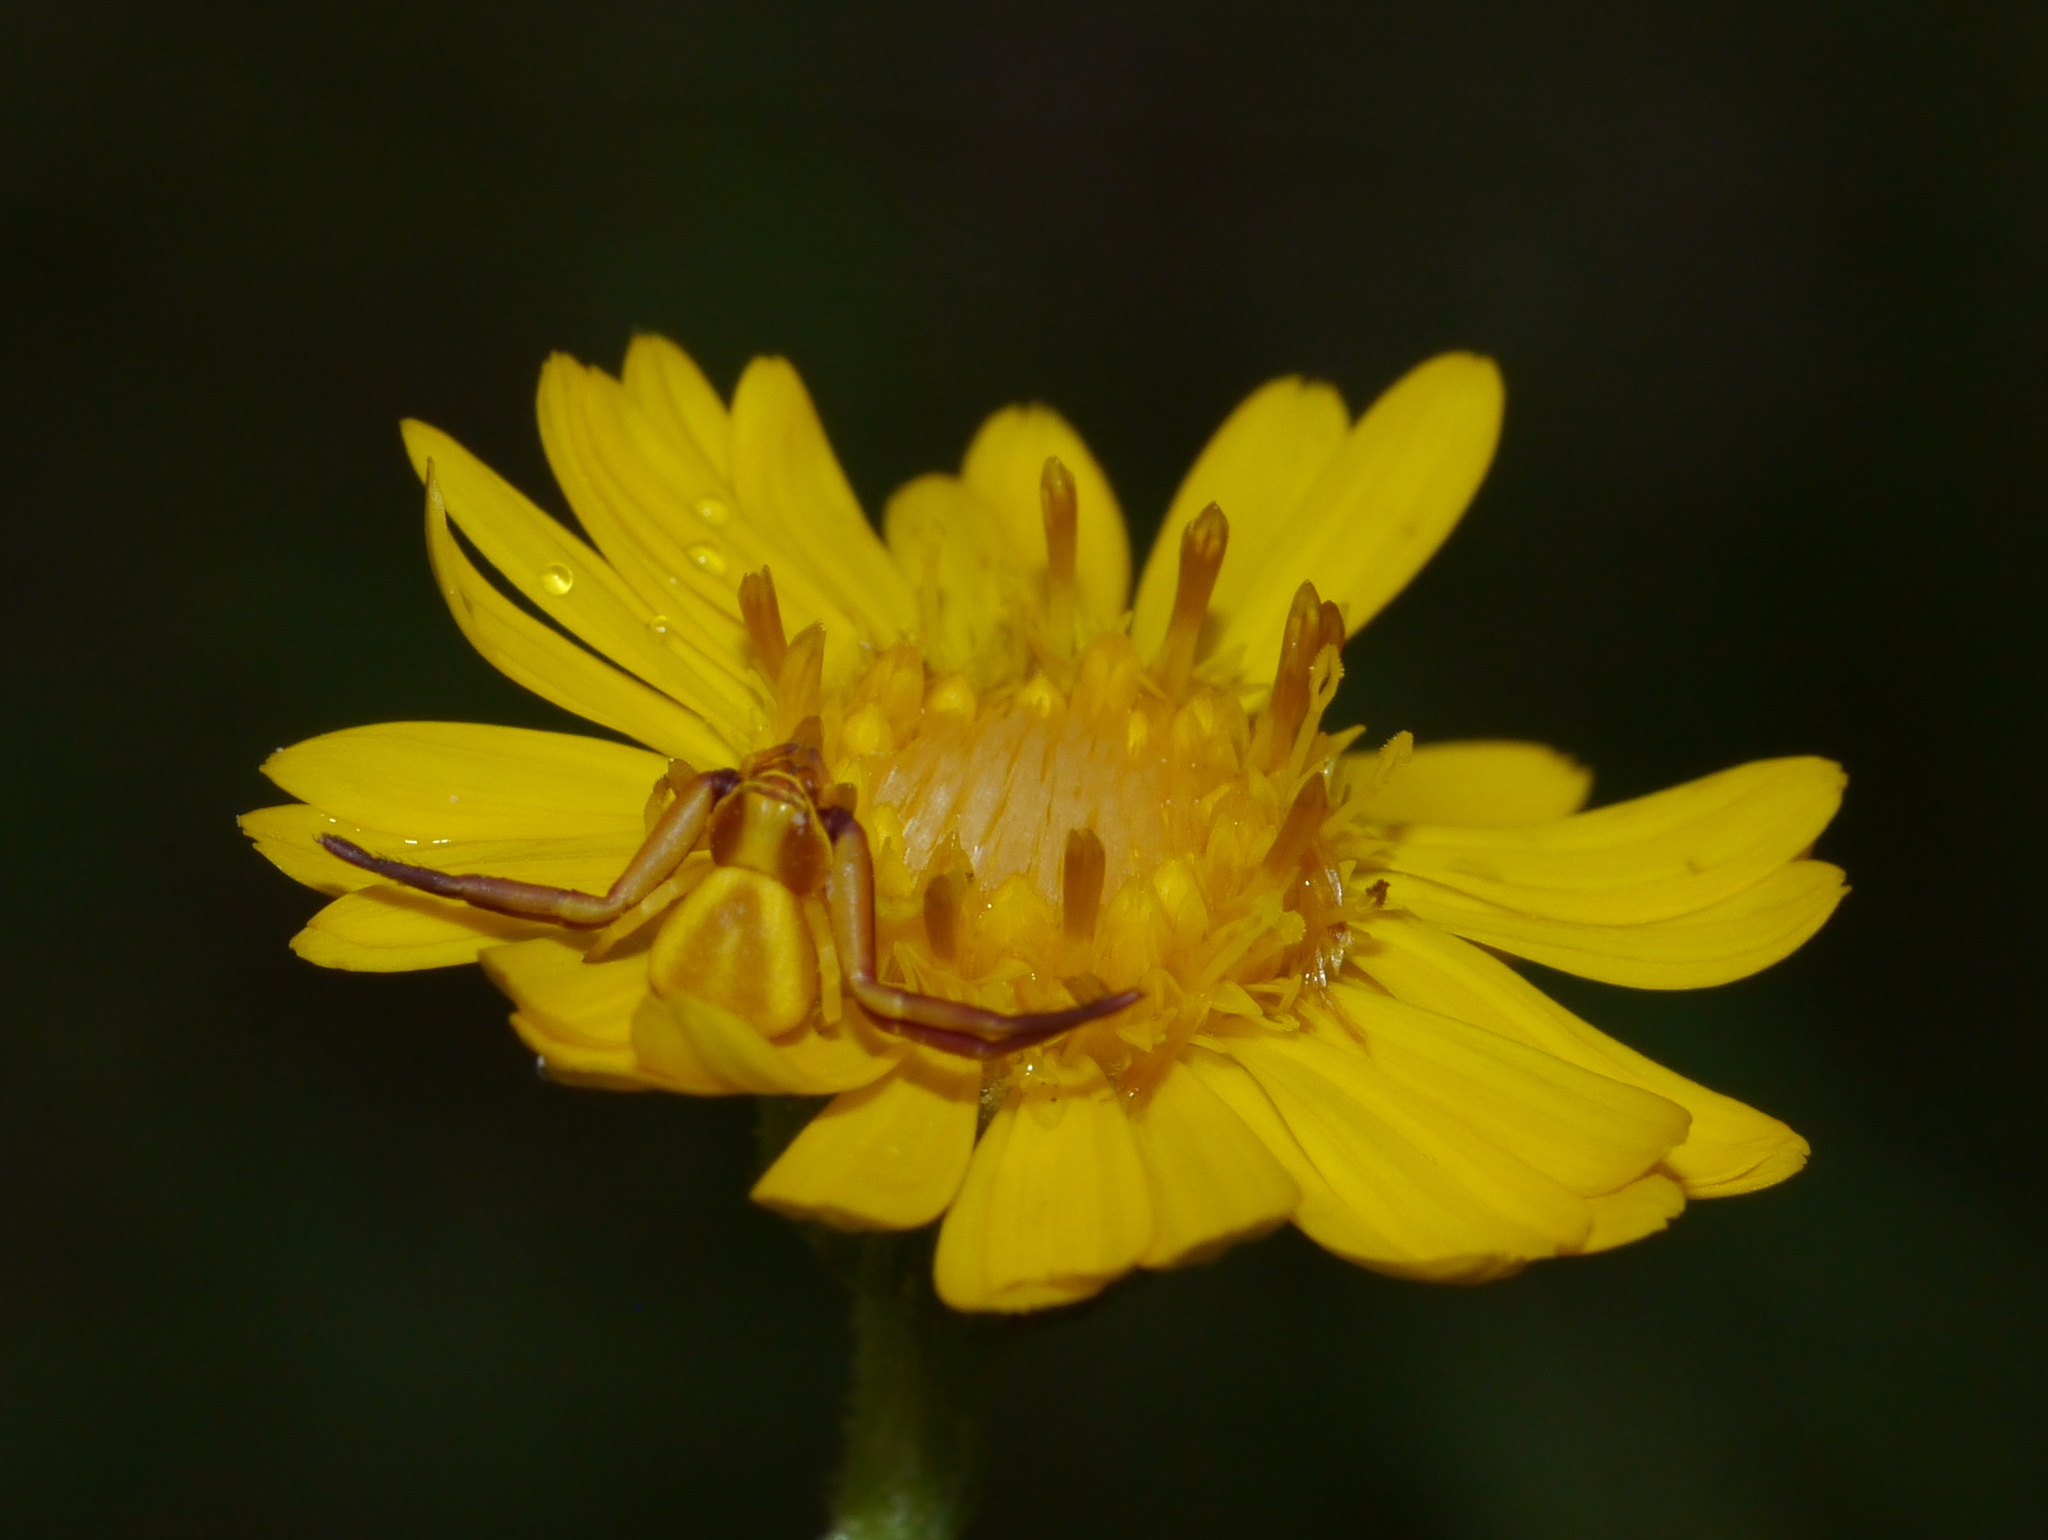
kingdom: Animalia
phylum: Arthropoda
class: Arachnida
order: Araneae
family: Thomisidae
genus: Misumenoides
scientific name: Misumenoides formosipes
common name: White-banded crab spider
